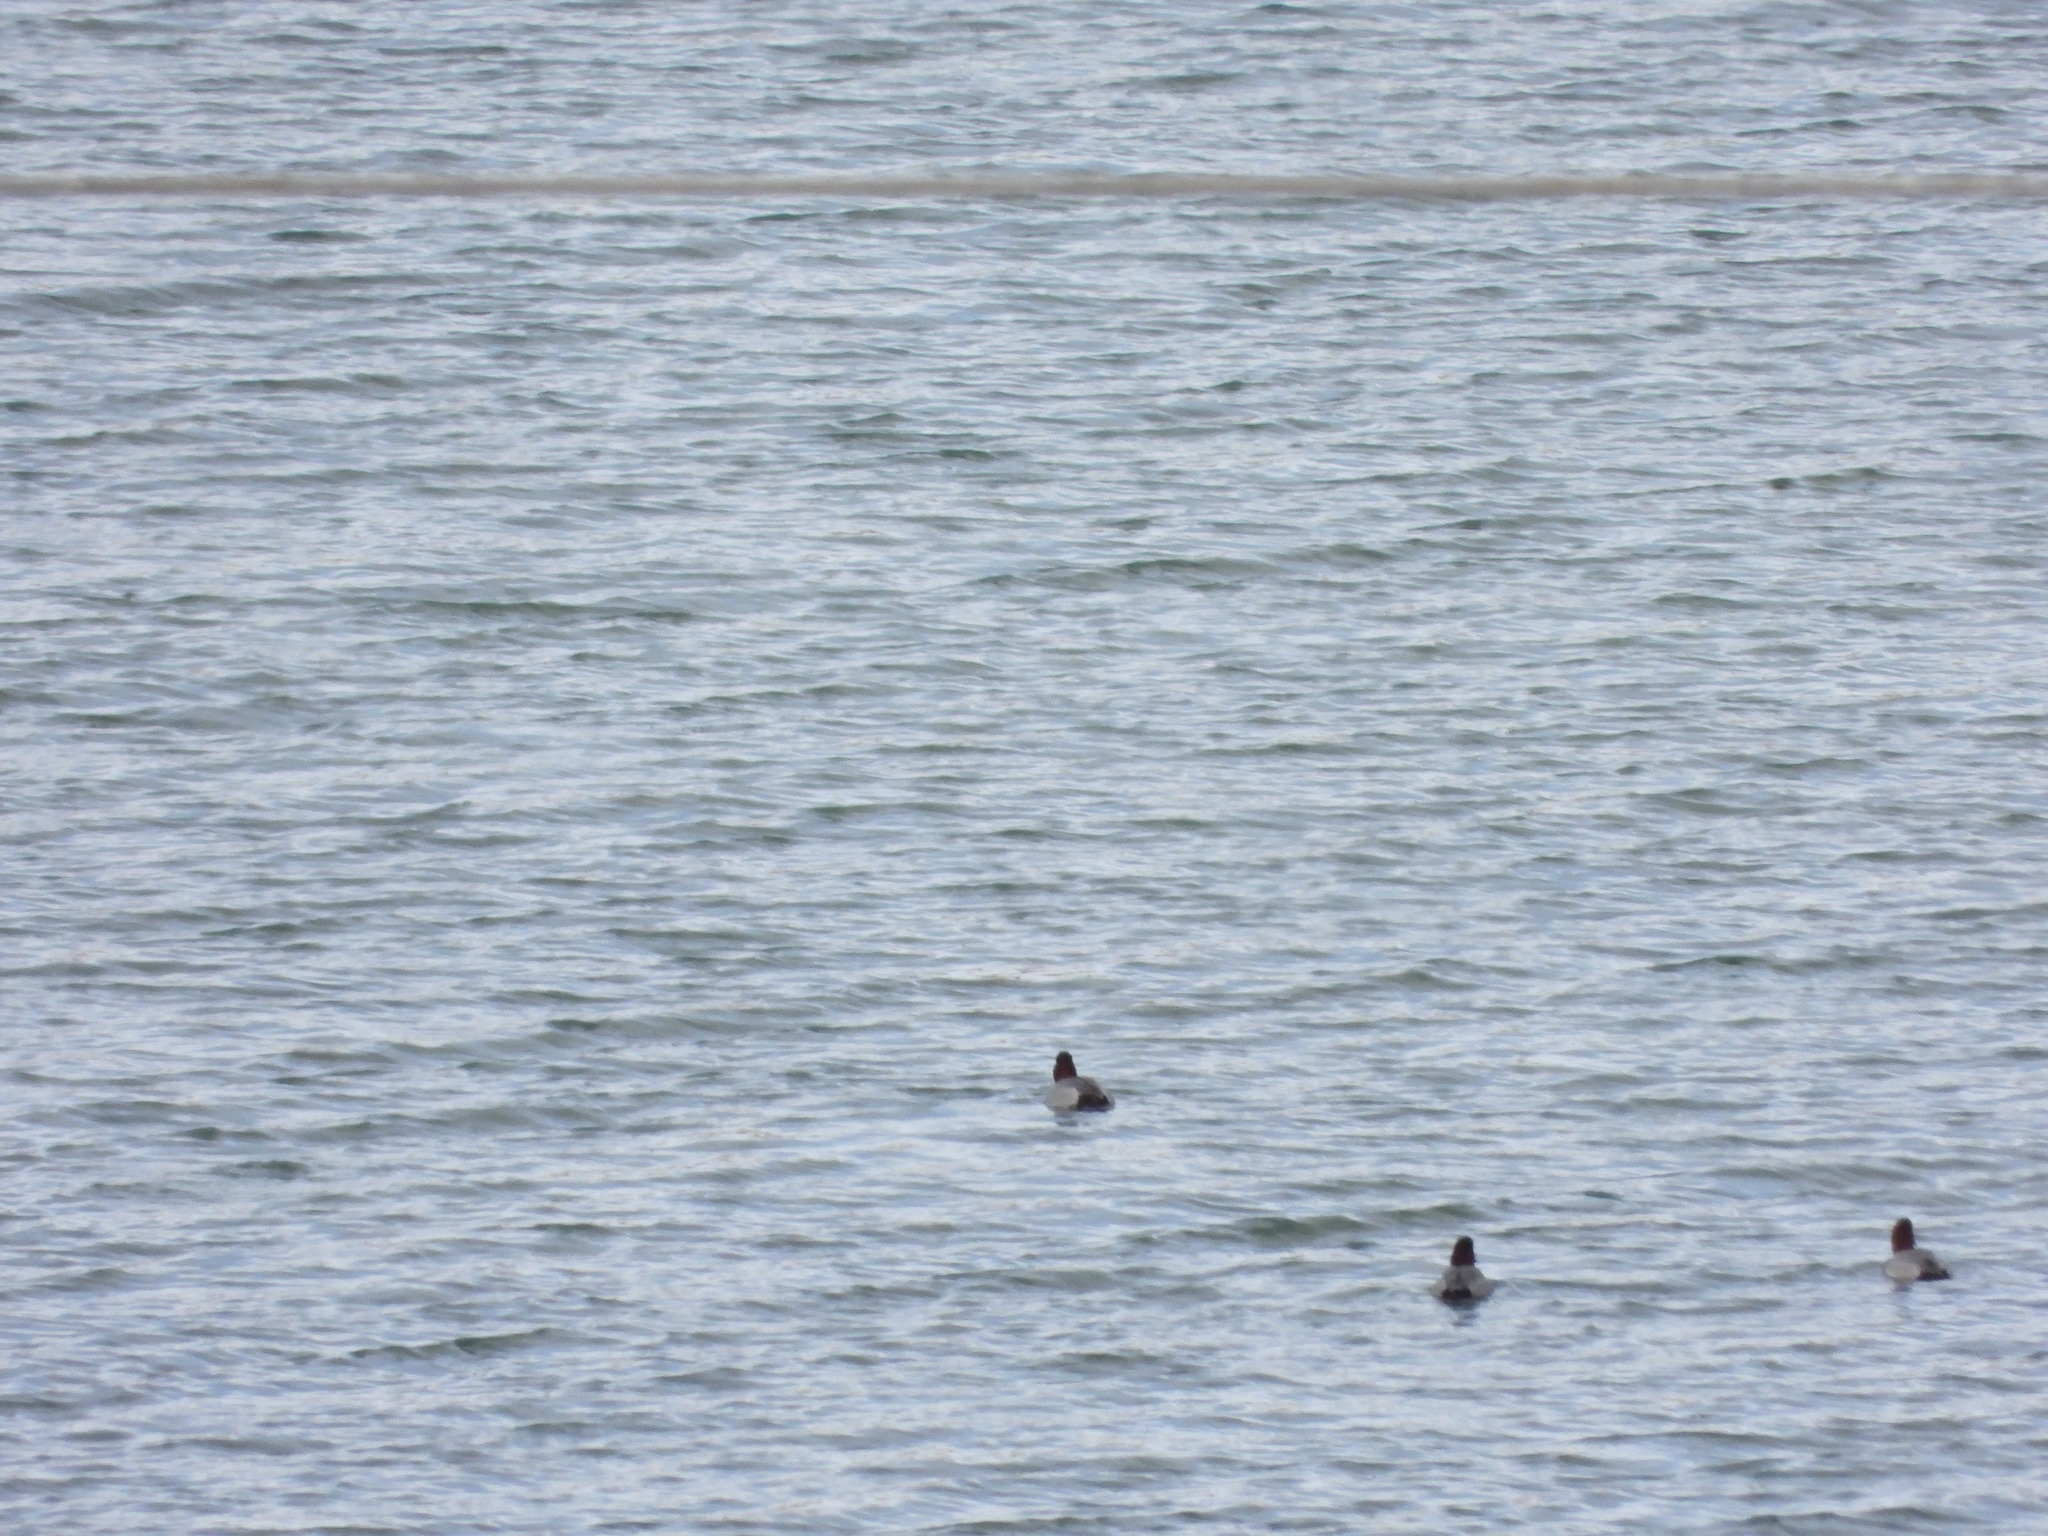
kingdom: Animalia
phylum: Chordata
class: Aves
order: Anseriformes
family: Anatidae
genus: Aythya
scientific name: Aythya americana
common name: Redhead
